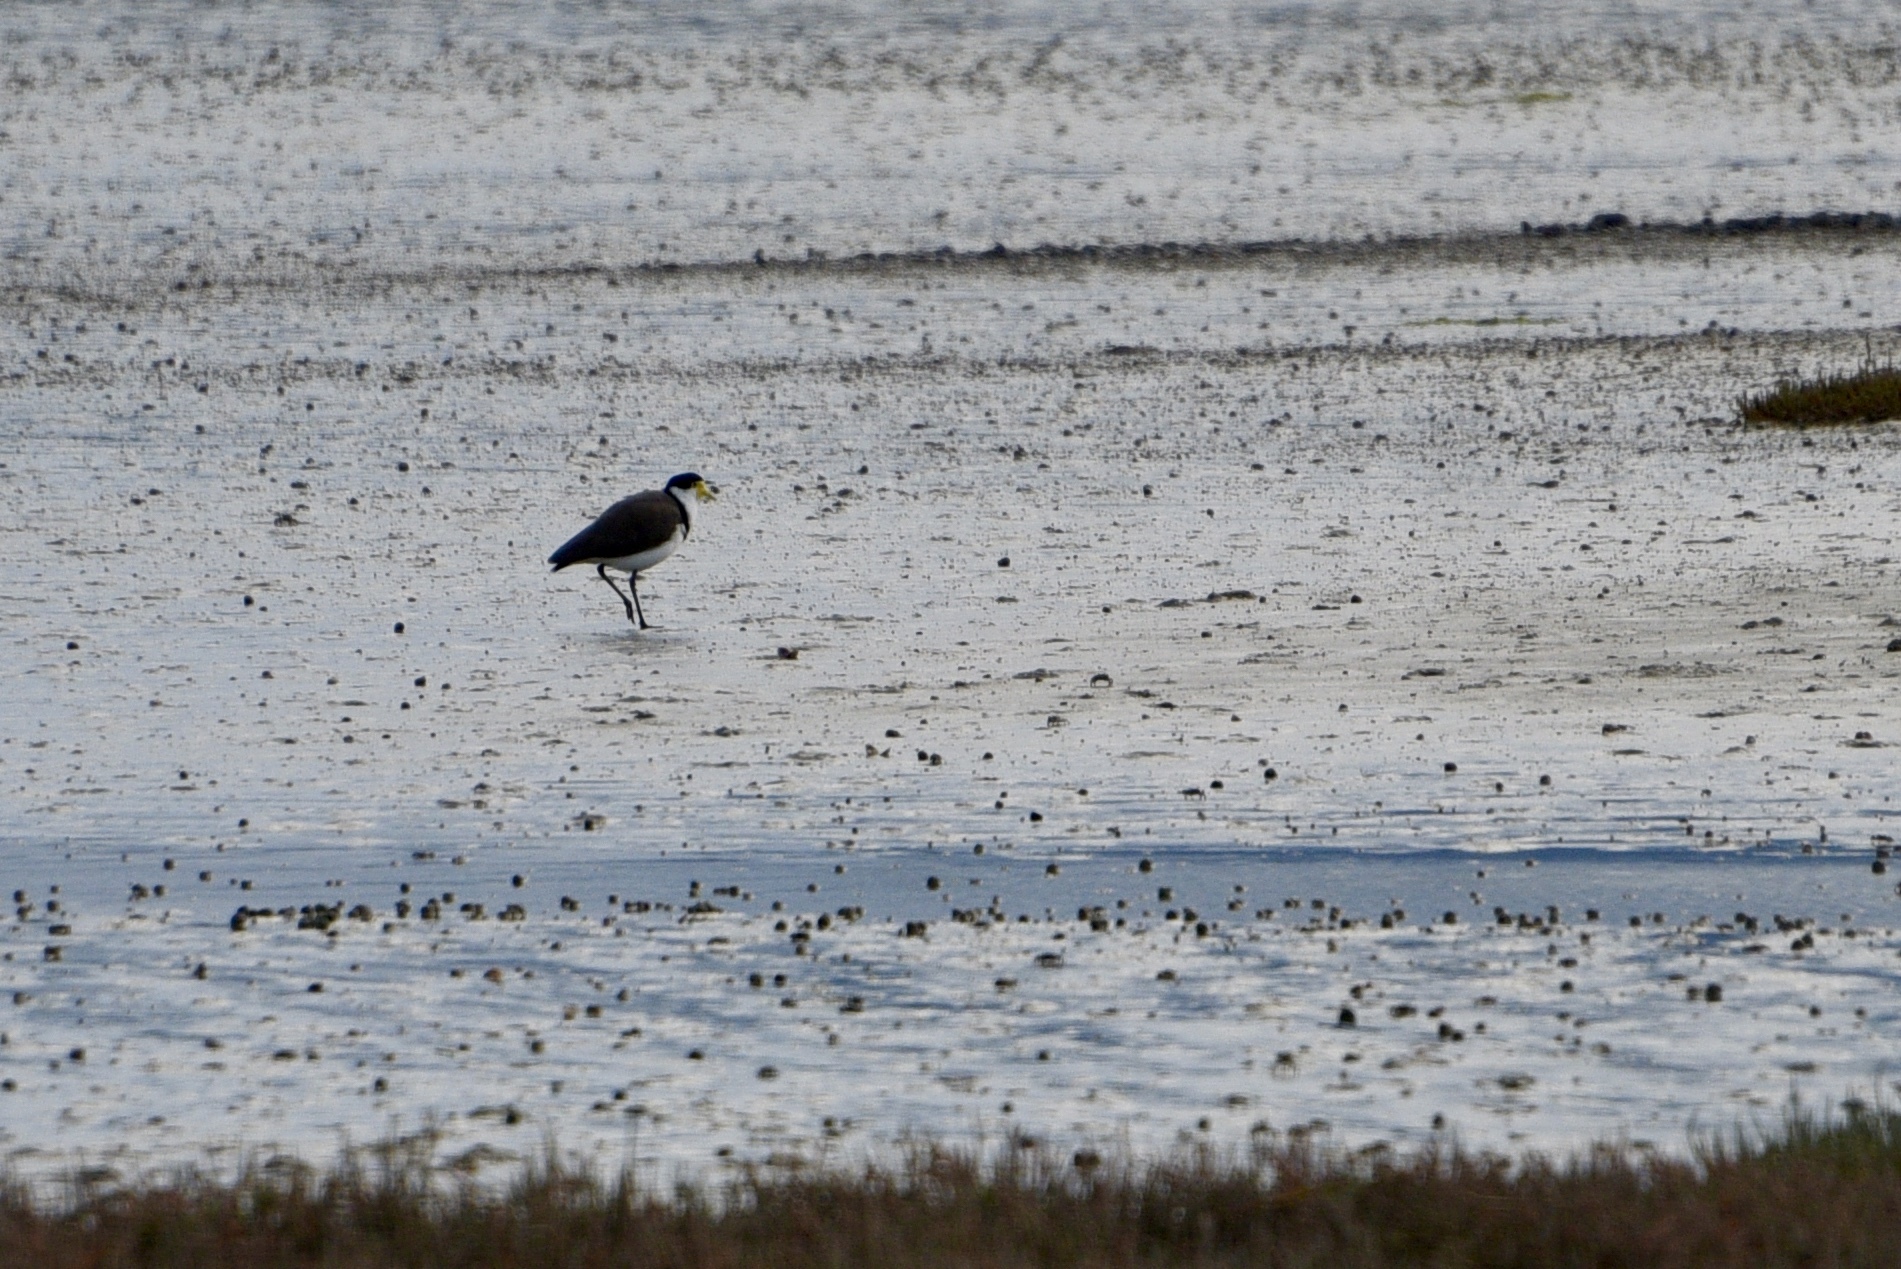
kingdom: Animalia
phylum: Chordata
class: Aves
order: Charadriiformes
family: Charadriidae
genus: Vanellus
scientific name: Vanellus miles
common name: Masked lapwing
